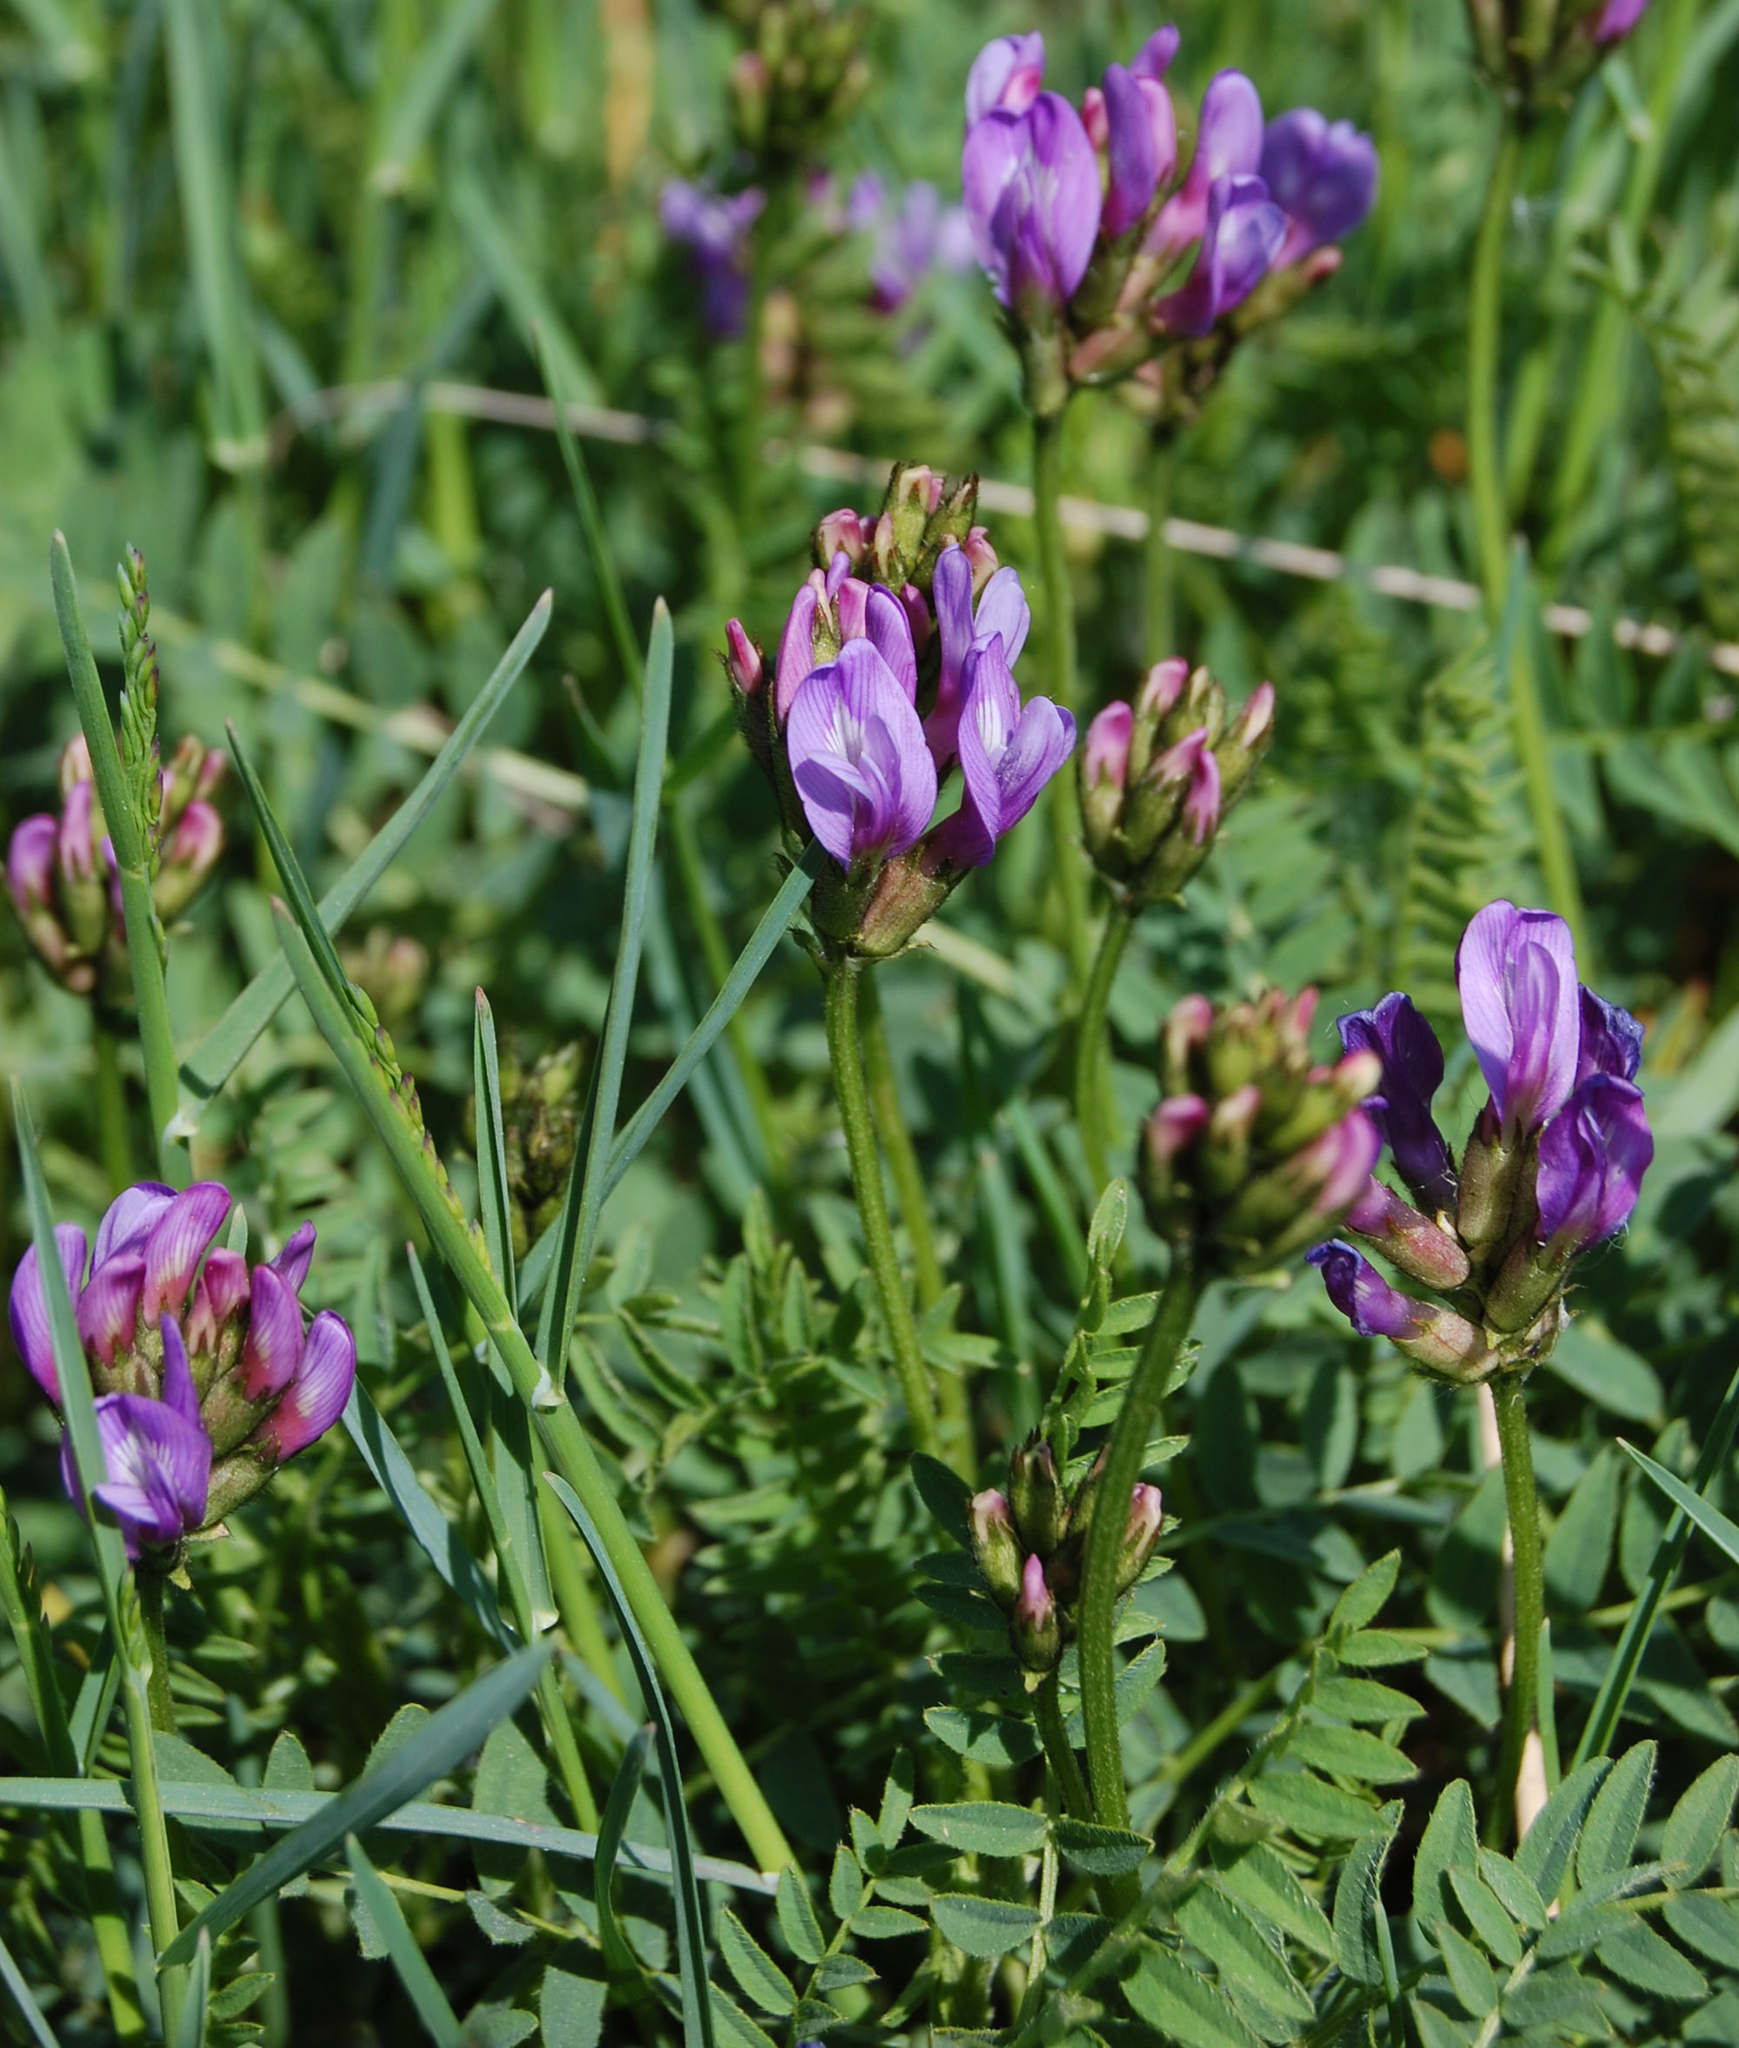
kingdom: Plantae
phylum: Tracheophyta
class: Magnoliopsida
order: Fabales
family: Fabaceae
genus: Astragalus
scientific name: Astragalus danicus
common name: Purple milk-vetch
